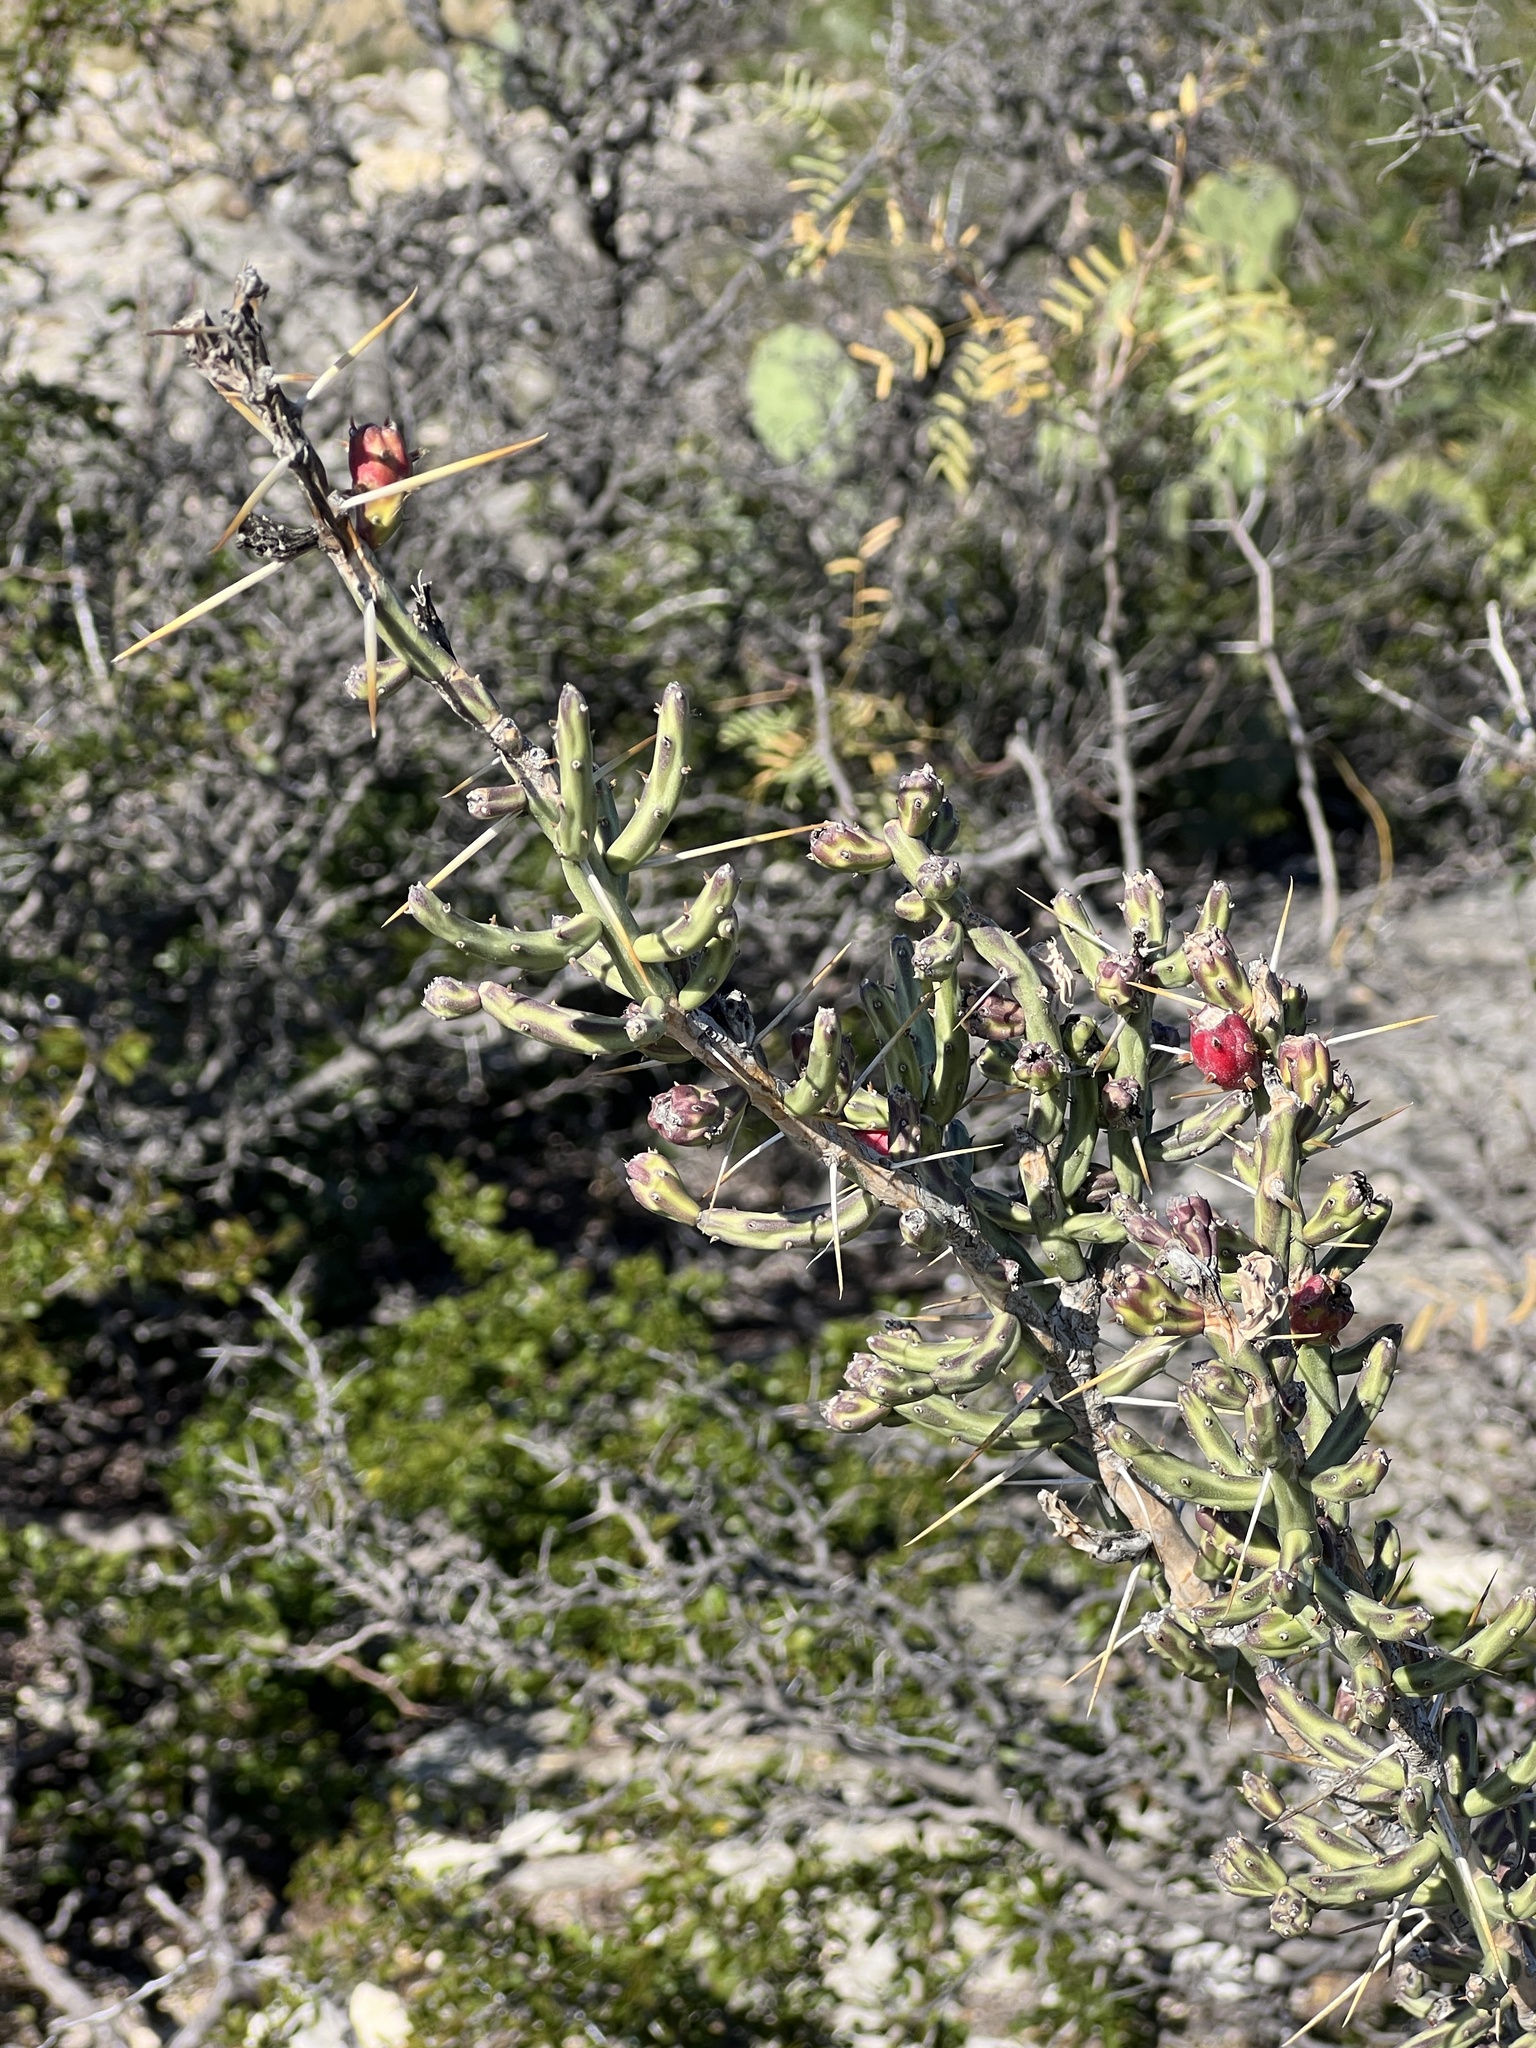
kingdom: Plantae
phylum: Tracheophyta
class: Magnoliopsida
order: Caryophyllales
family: Cactaceae
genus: Cylindropuntia
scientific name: Cylindropuntia leptocaulis
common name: Christmas cactus
